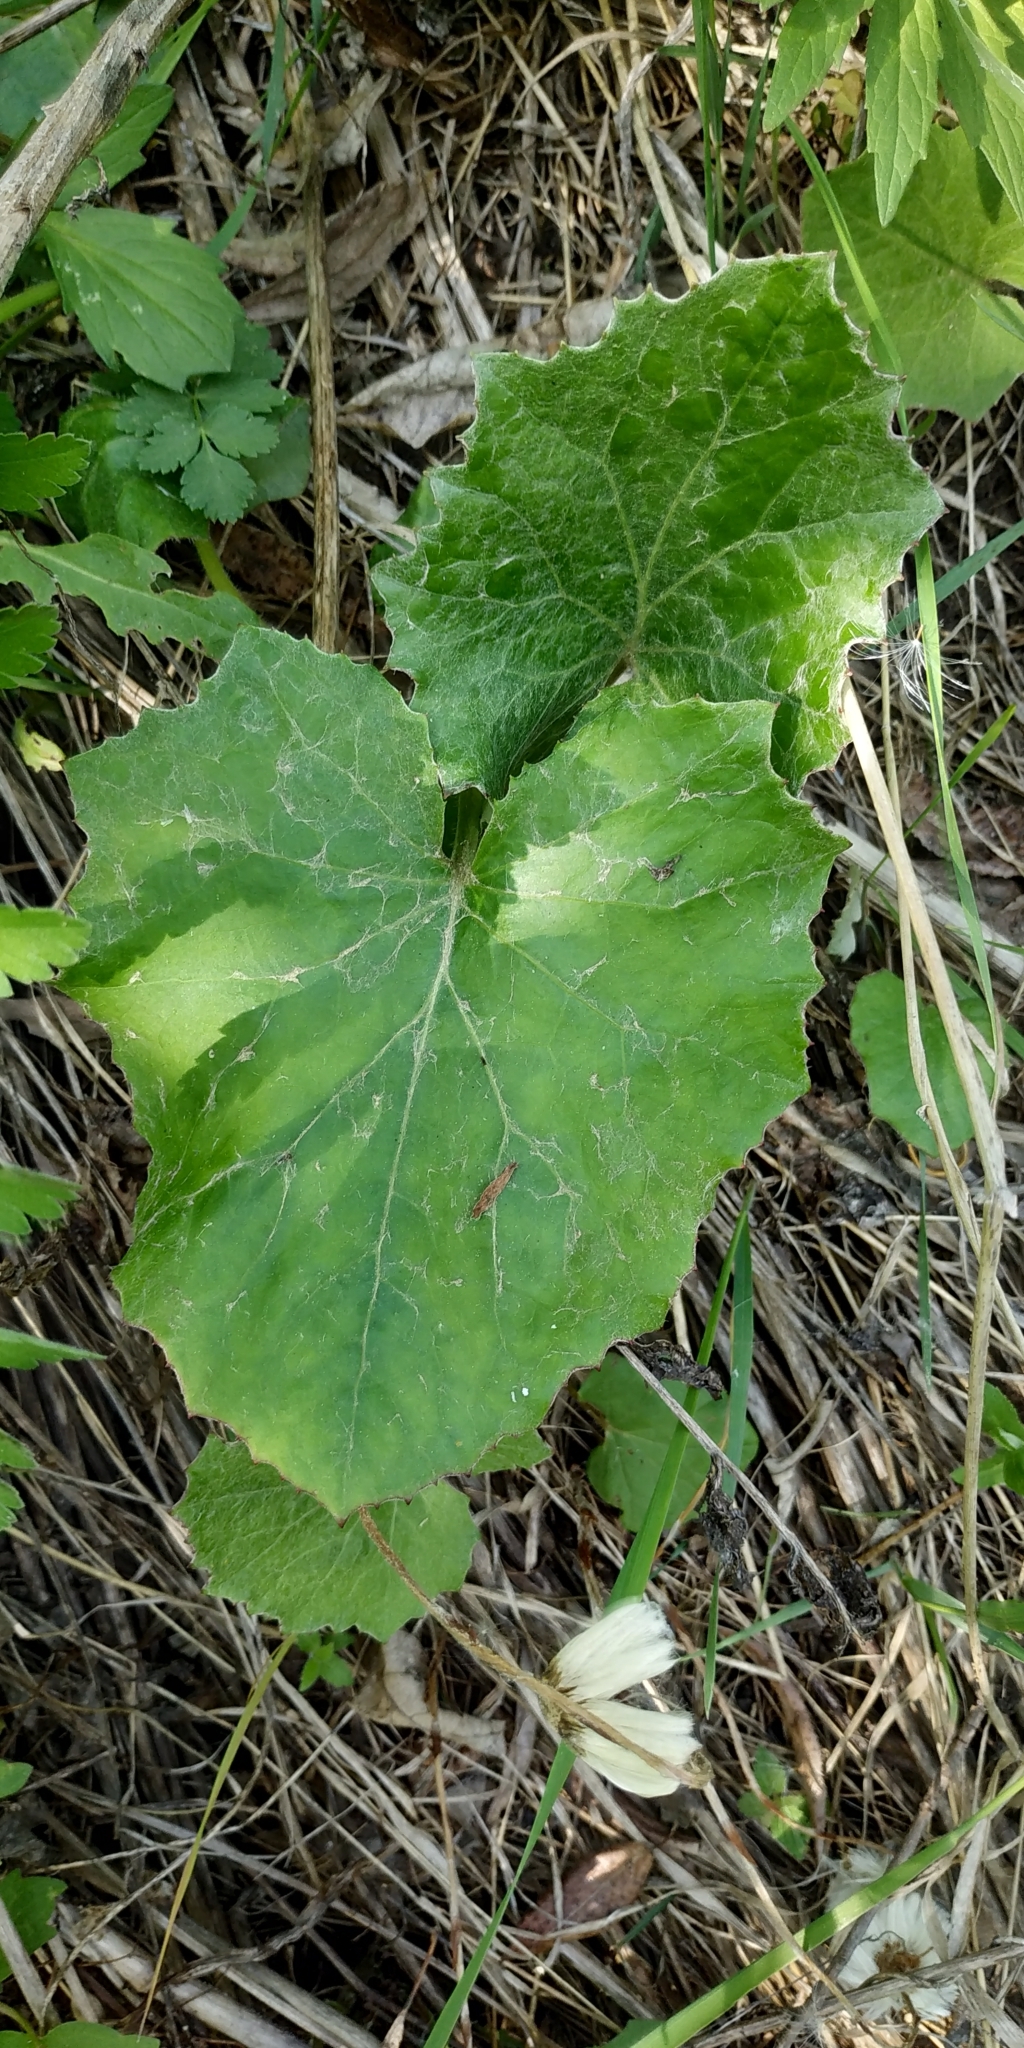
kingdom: Plantae
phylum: Tracheophyta
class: Magnoliopsida
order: Asterales
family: Asteraceae
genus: Tussilago
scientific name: Tussilago farfara
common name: Coltsfoot
